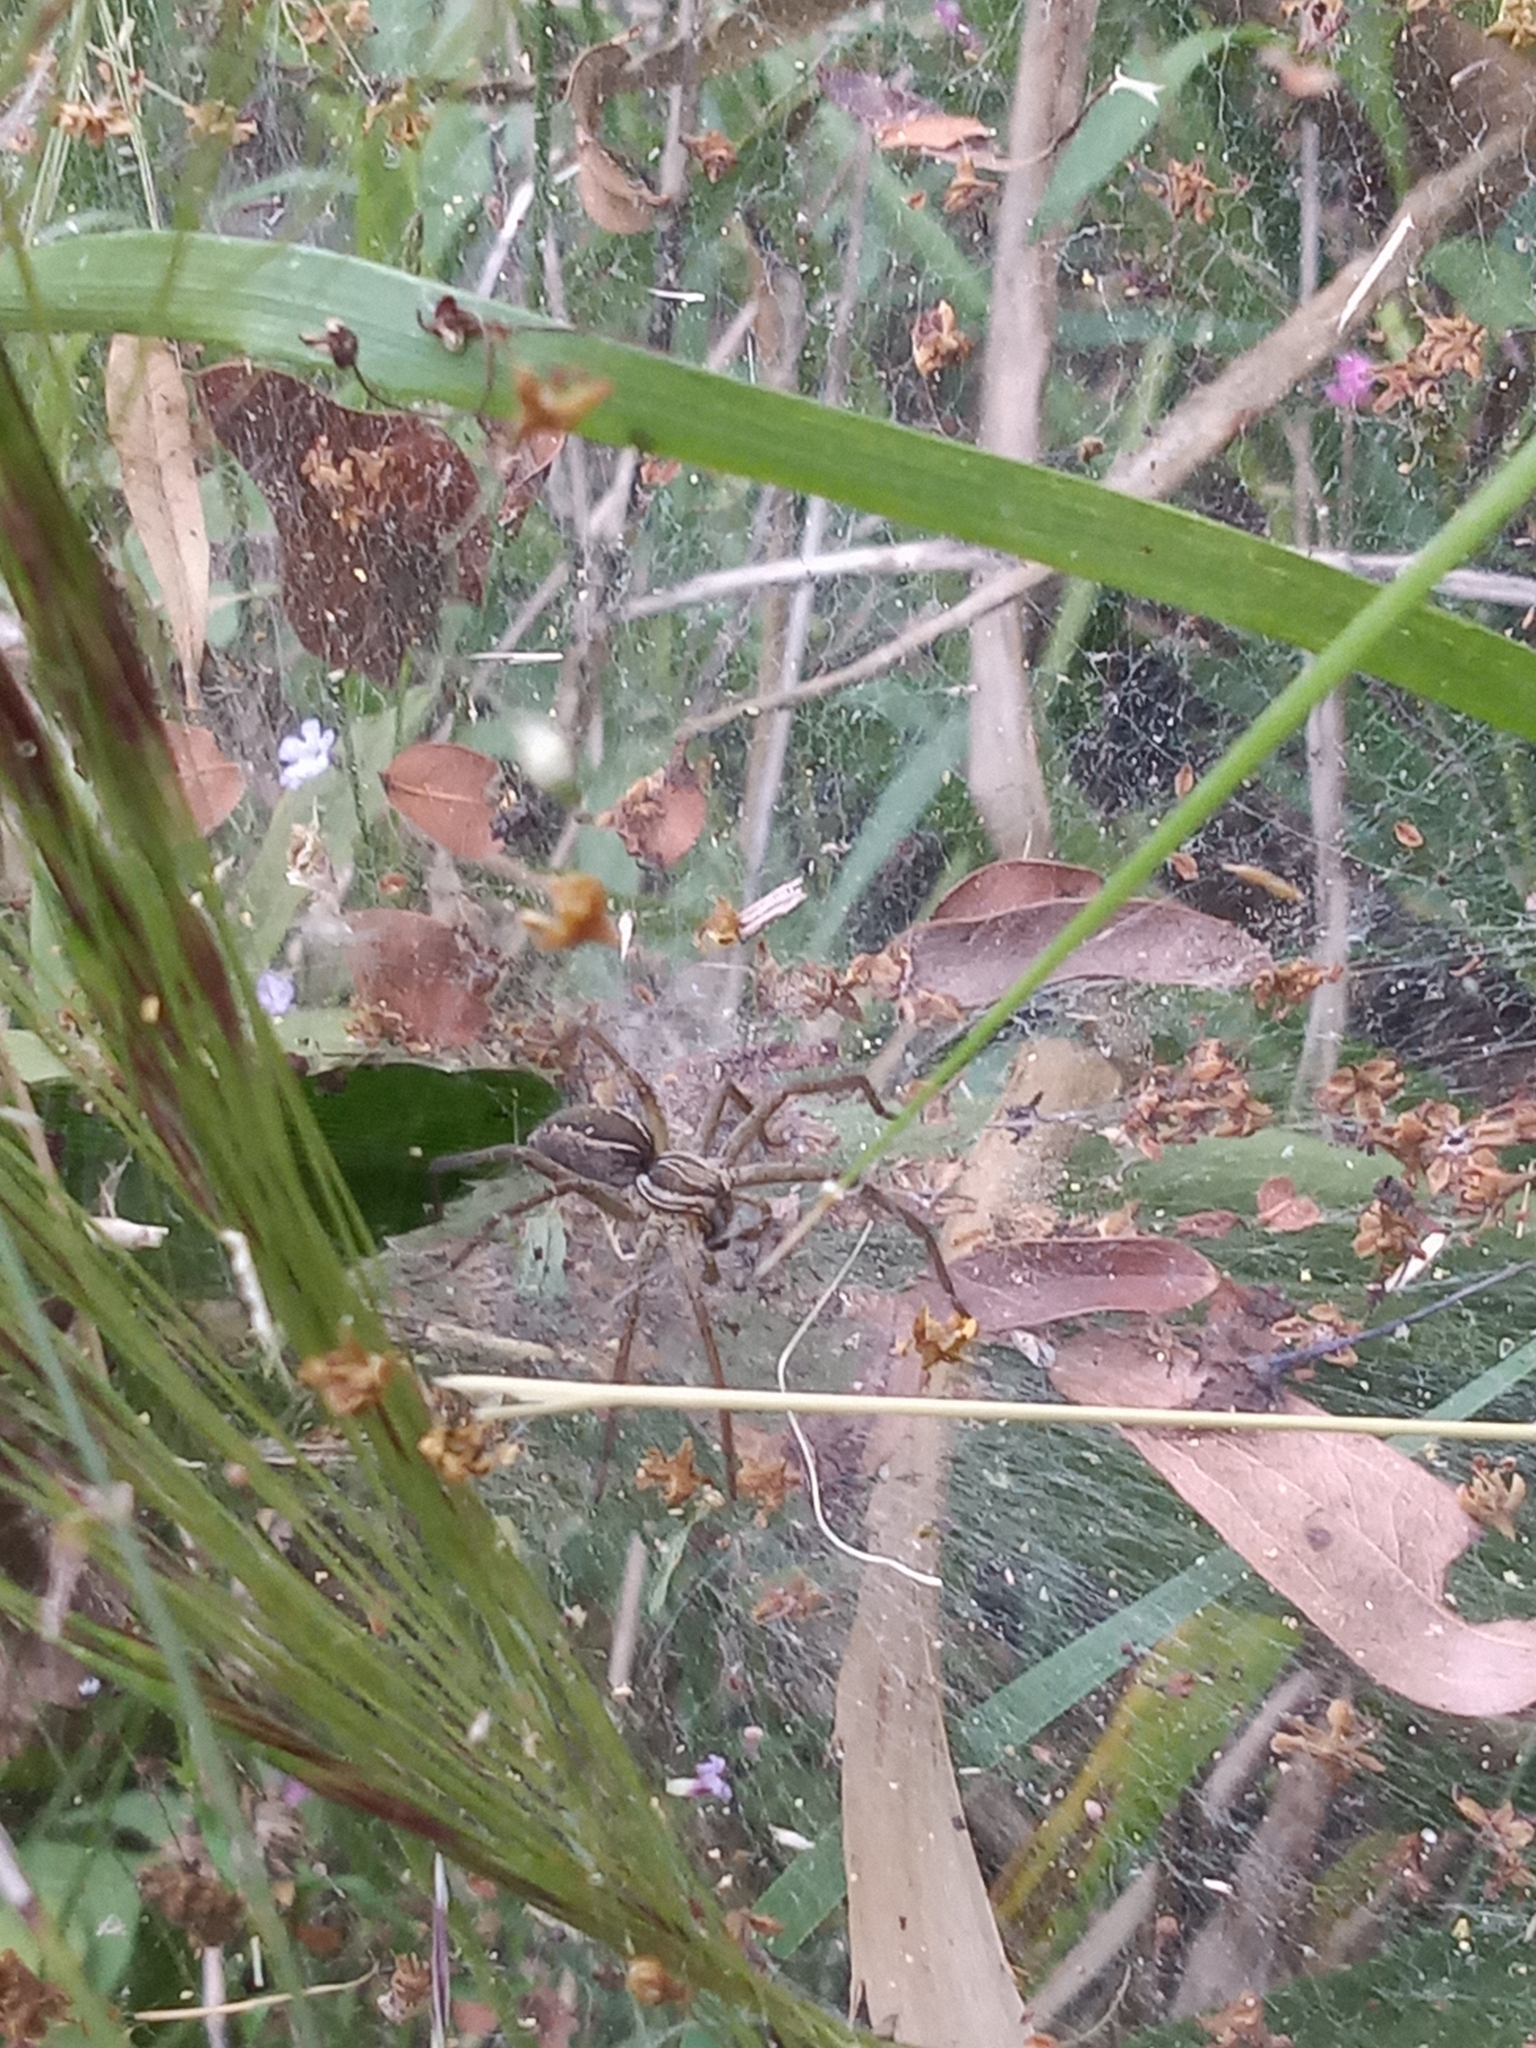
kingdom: Animalia
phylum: Arthropoda
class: Arachnida
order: Araneae
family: Lycosidae
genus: Aglaoctenus
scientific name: Aglaoctenus lagotis
